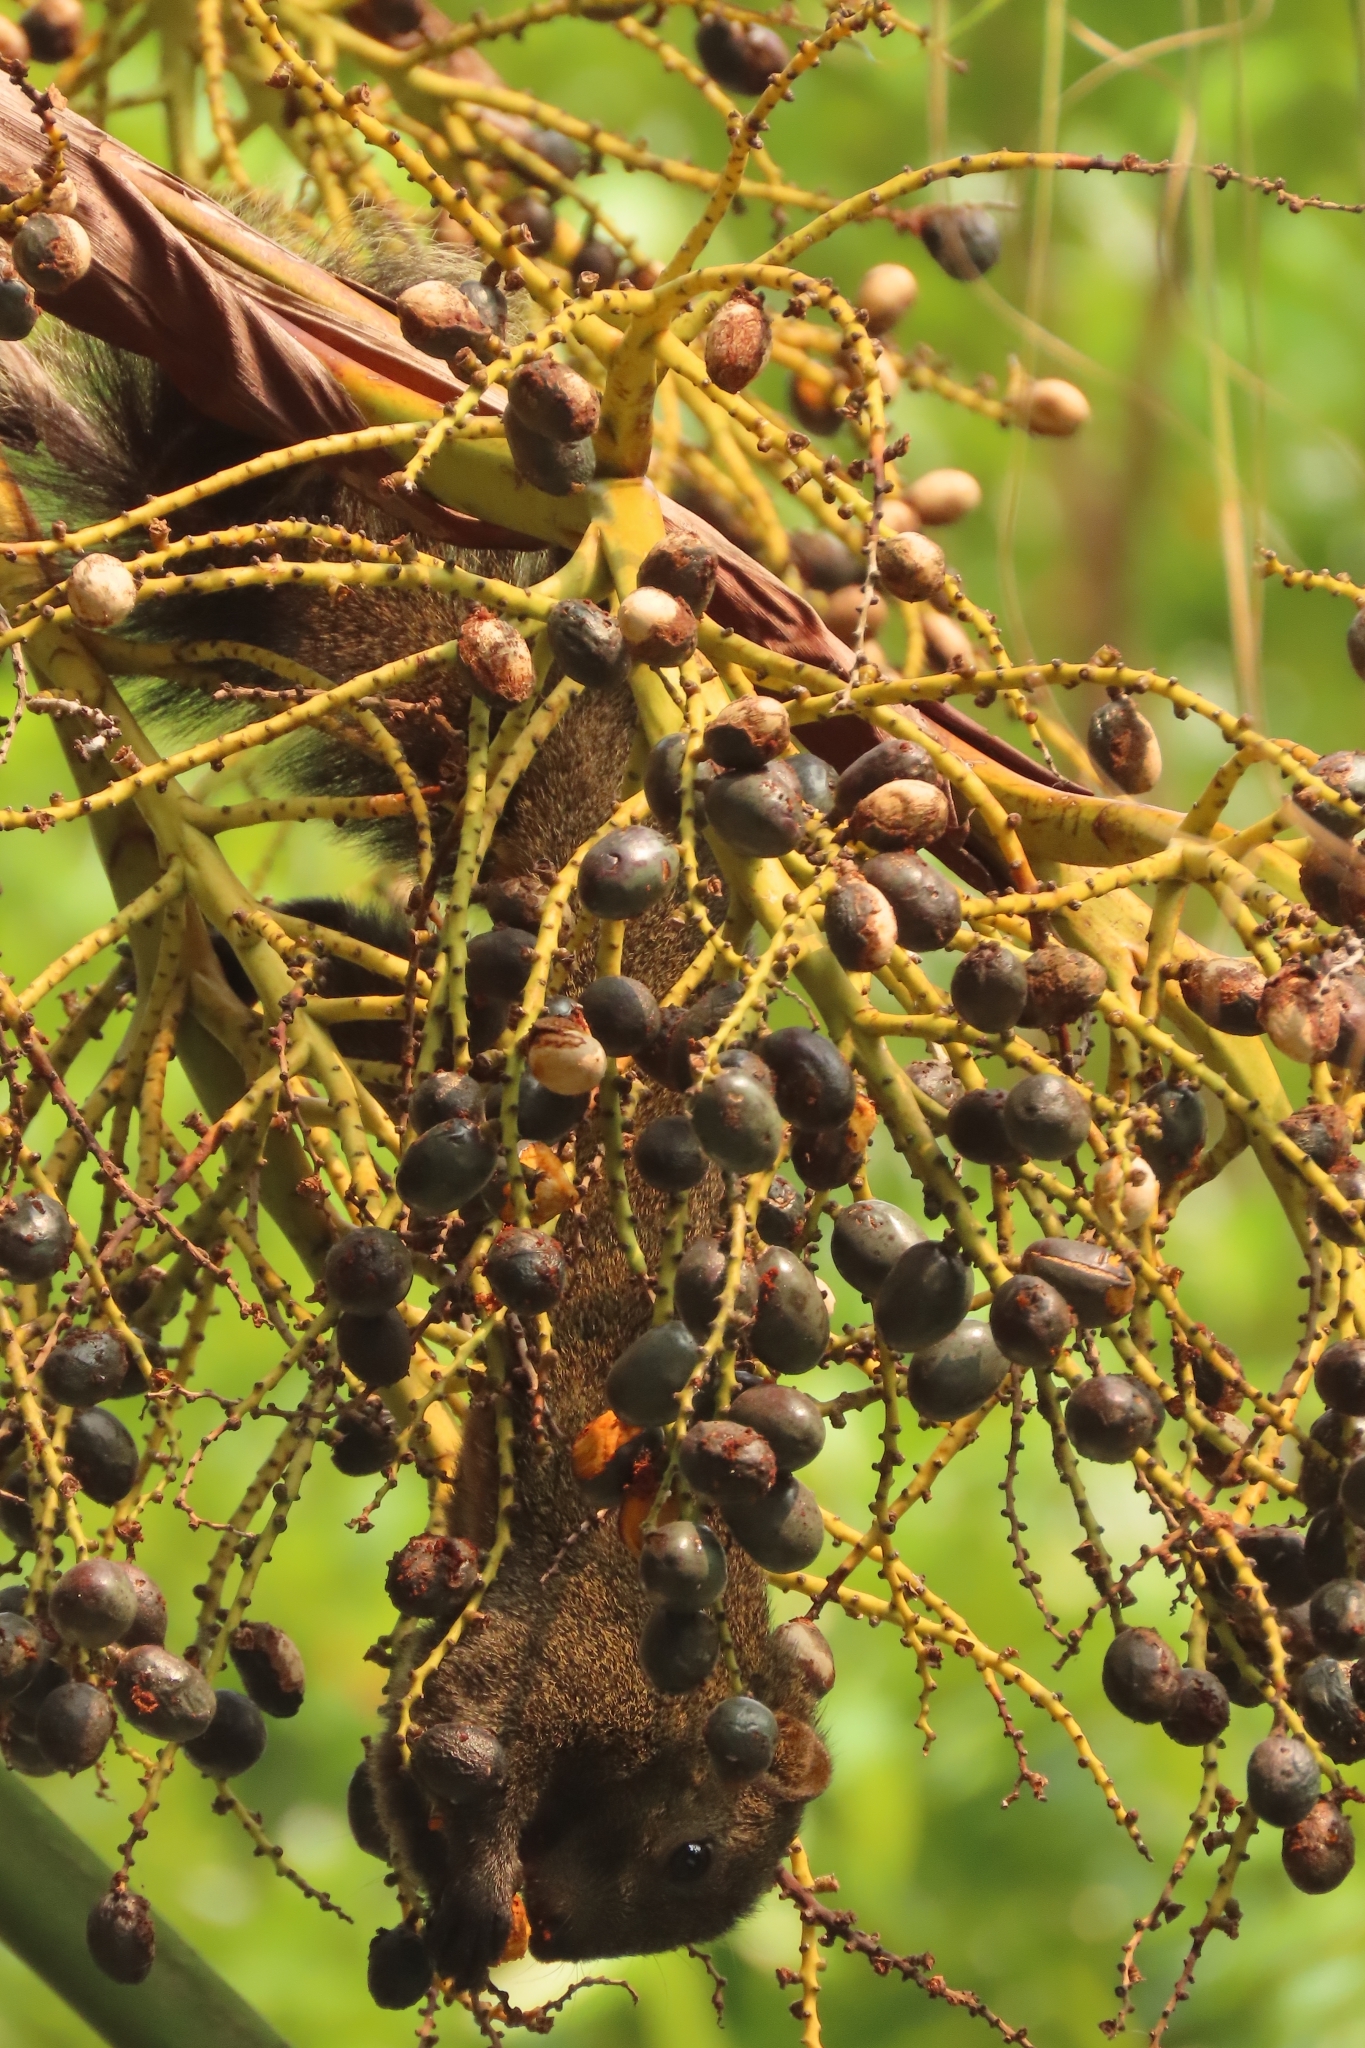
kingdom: Animalia
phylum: Chordata
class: Mammalia
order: Rodentia
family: Sciuridae
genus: Callosciurus
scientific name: Callosciurus erythraeus
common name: Pallas's squirrel
